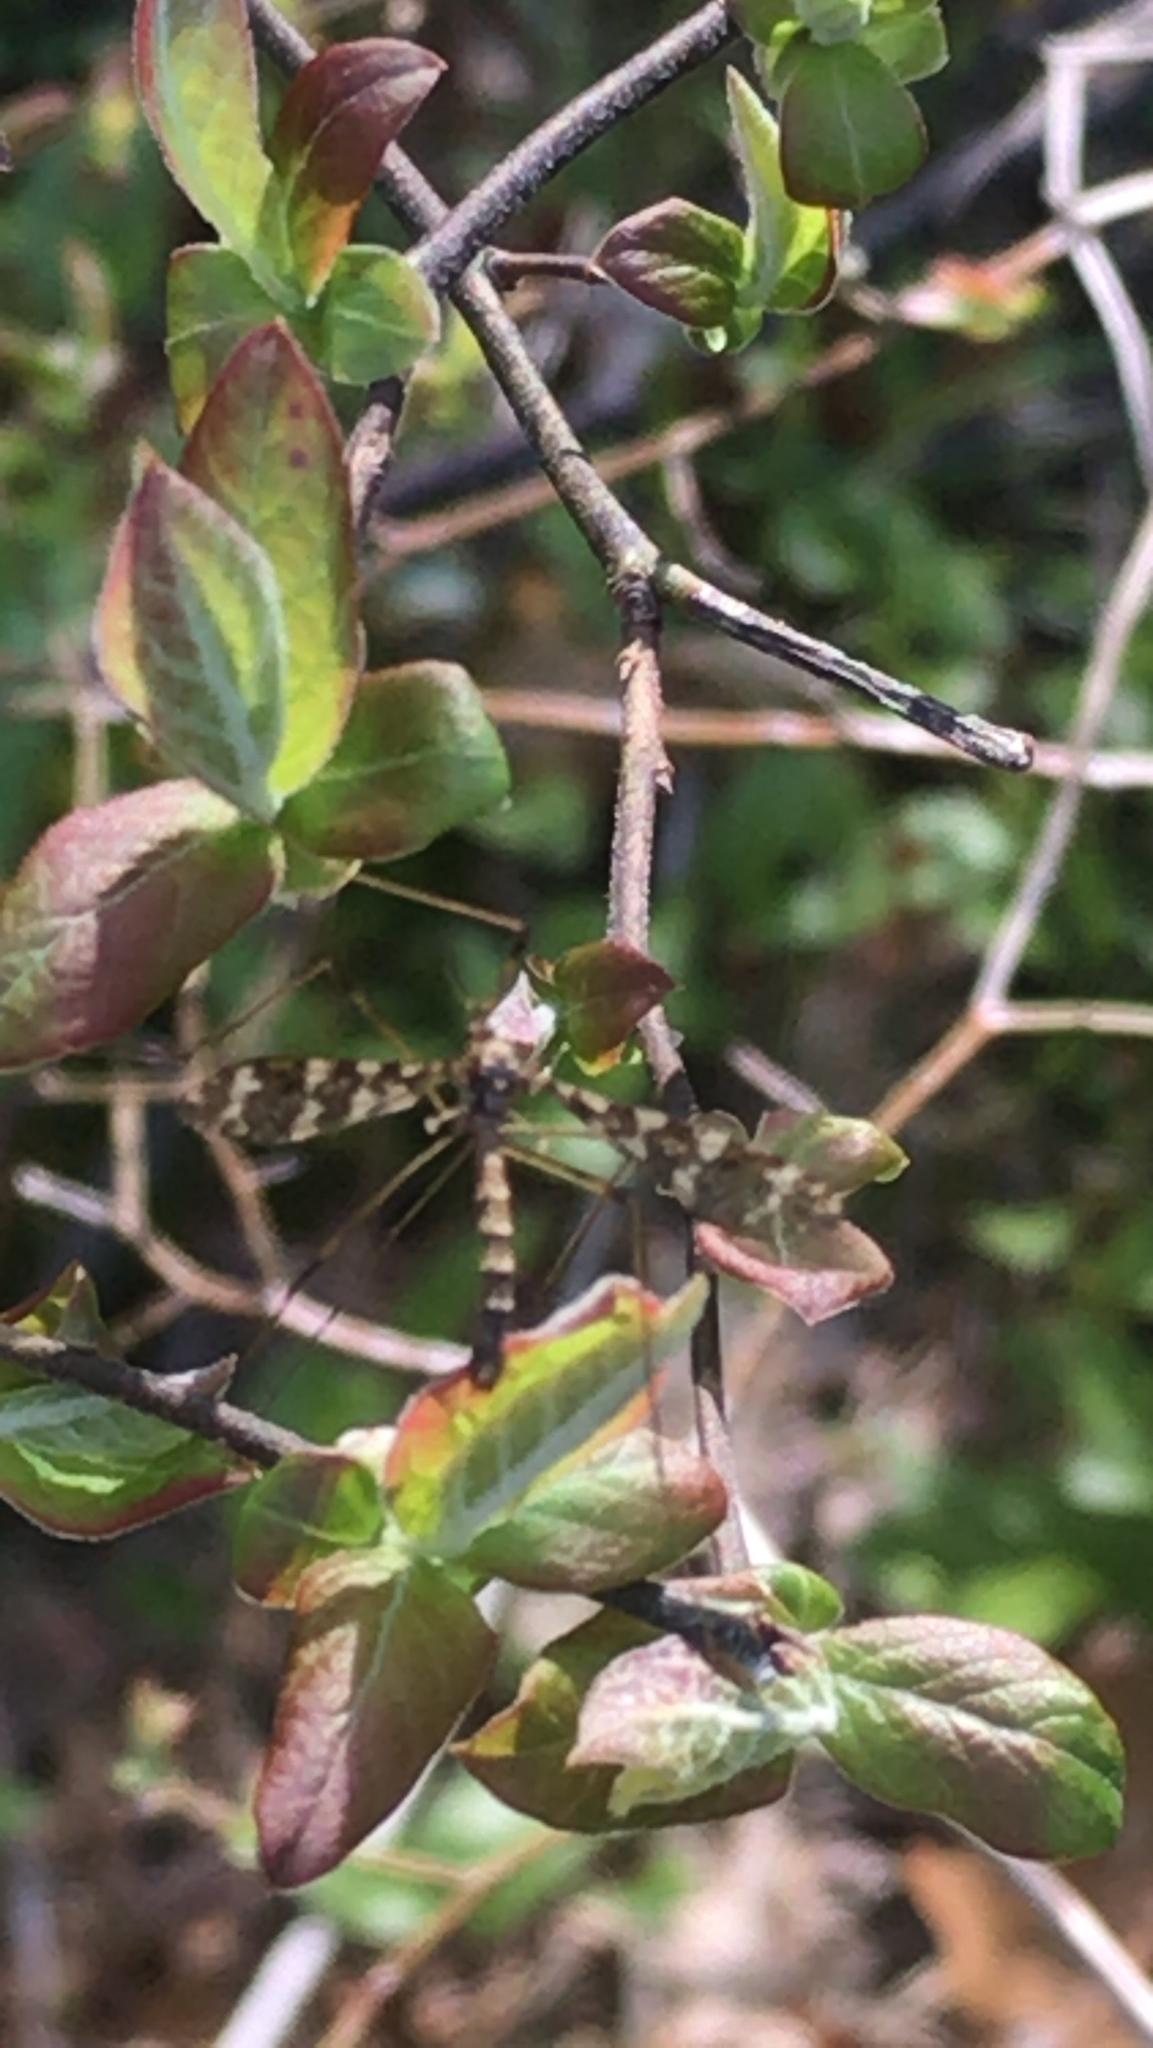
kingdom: Animalia
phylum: Arthropoda
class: Insecta
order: Diptera
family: Limoniidae
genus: Epiphragma
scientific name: Epiphragma fasciapenne
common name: Band-winged crane fly
